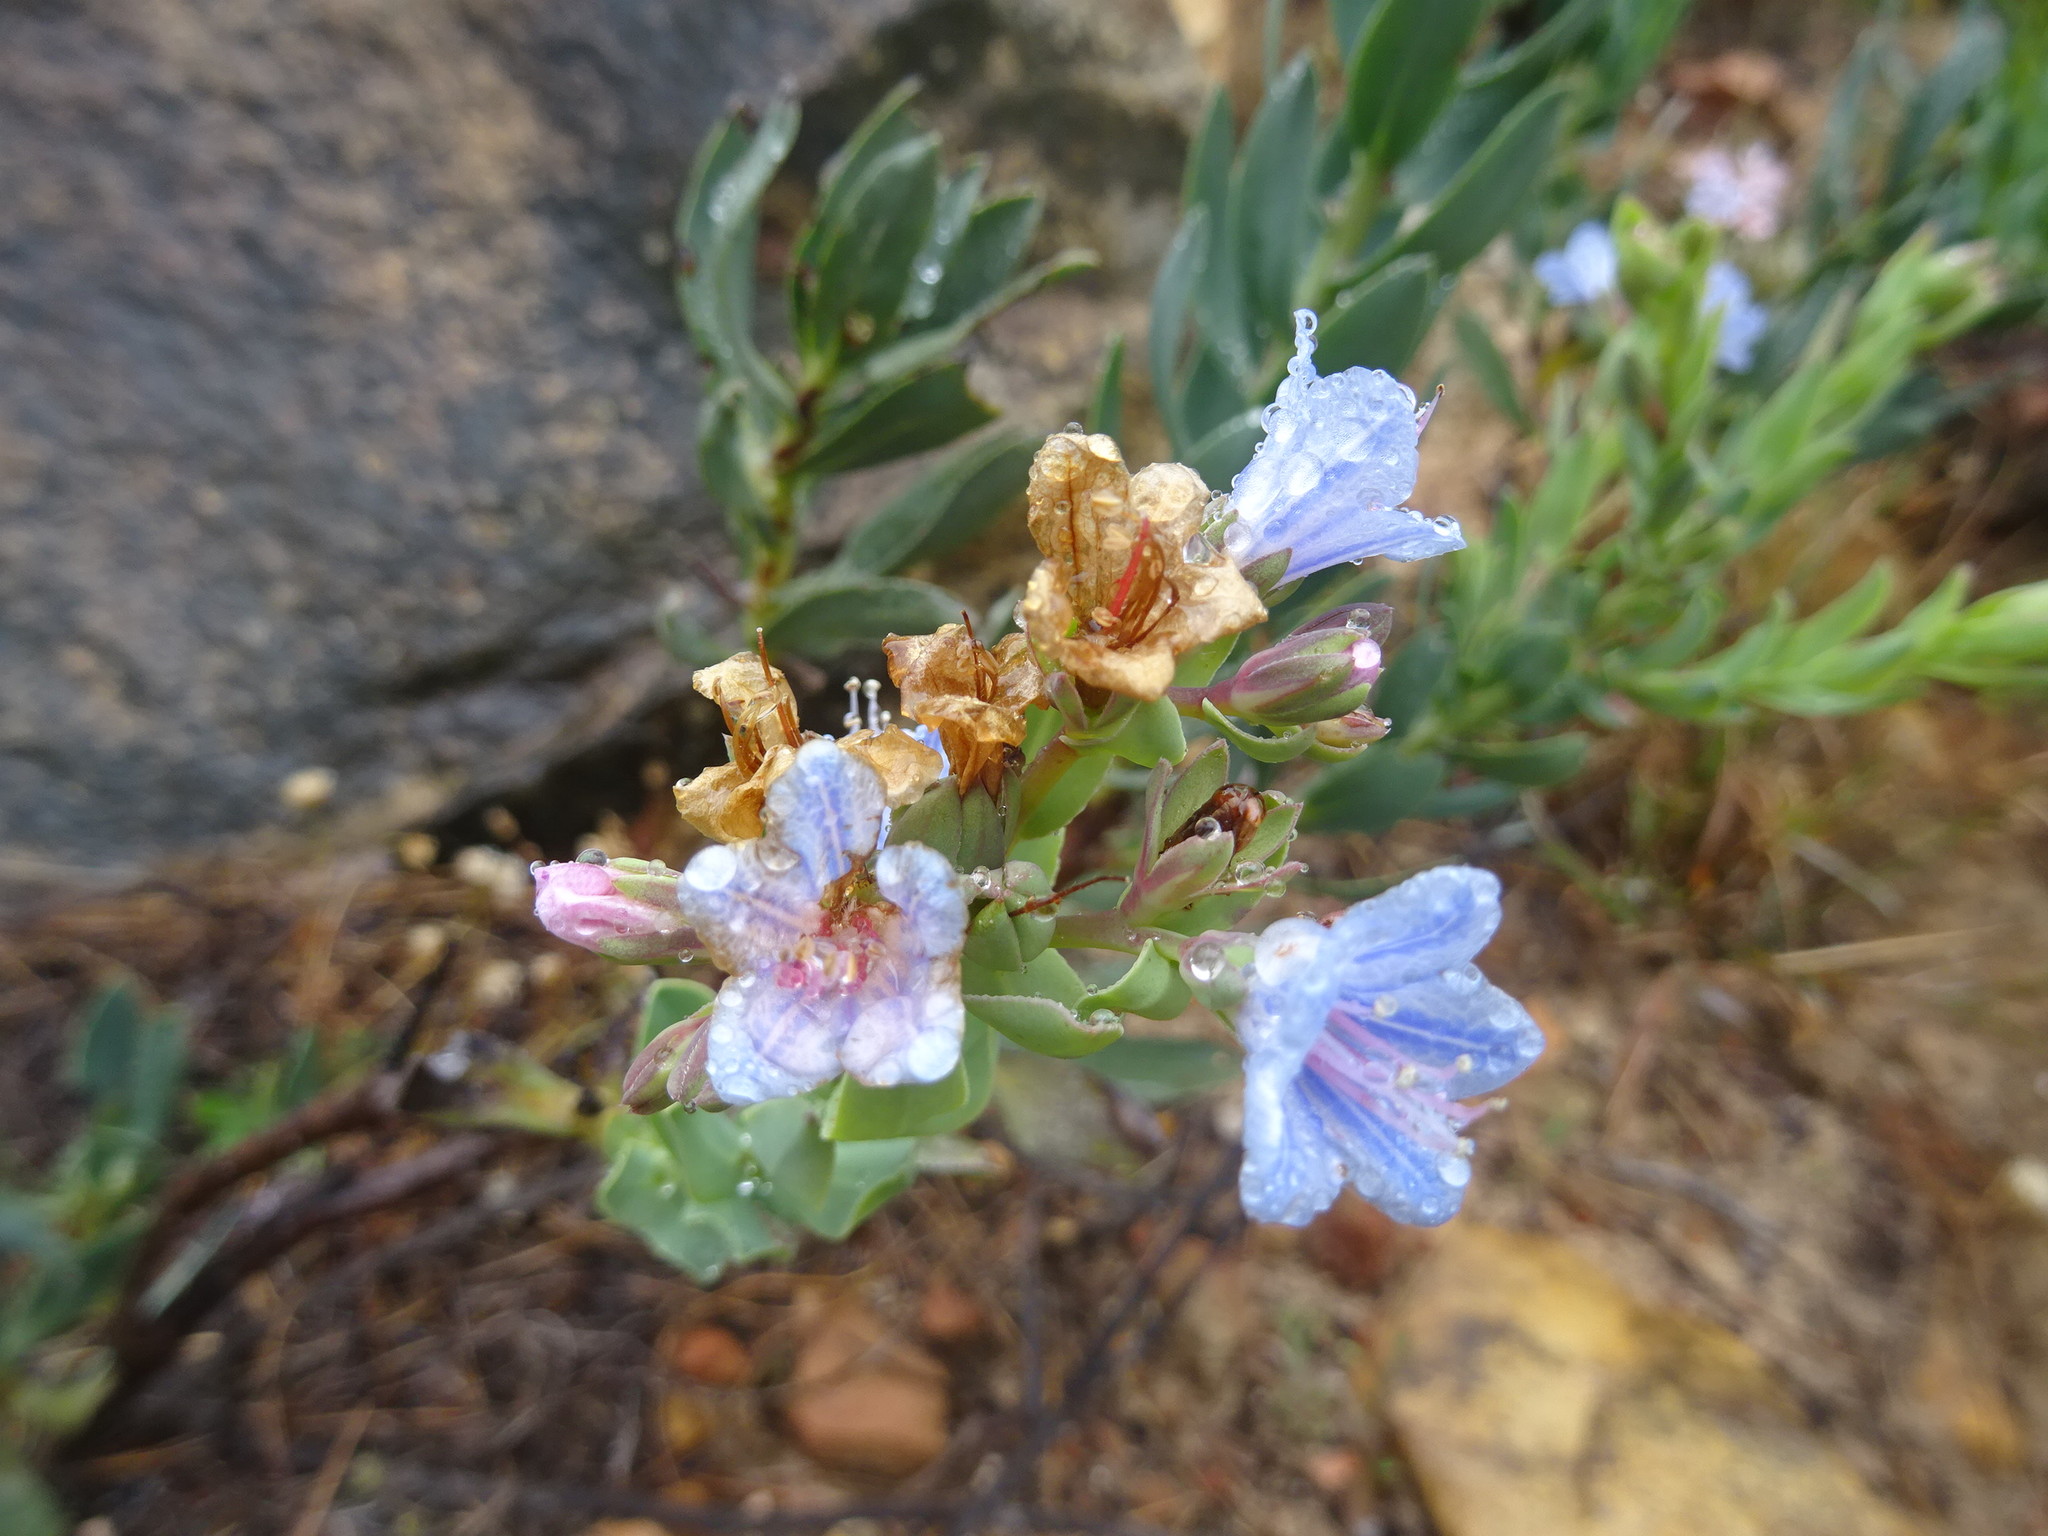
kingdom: Plantae
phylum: Tracheophyta
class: Magnoliopsida
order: Boraginales
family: Boraginaceae
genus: Lobostemon
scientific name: Lobostemon glaucophyllus
